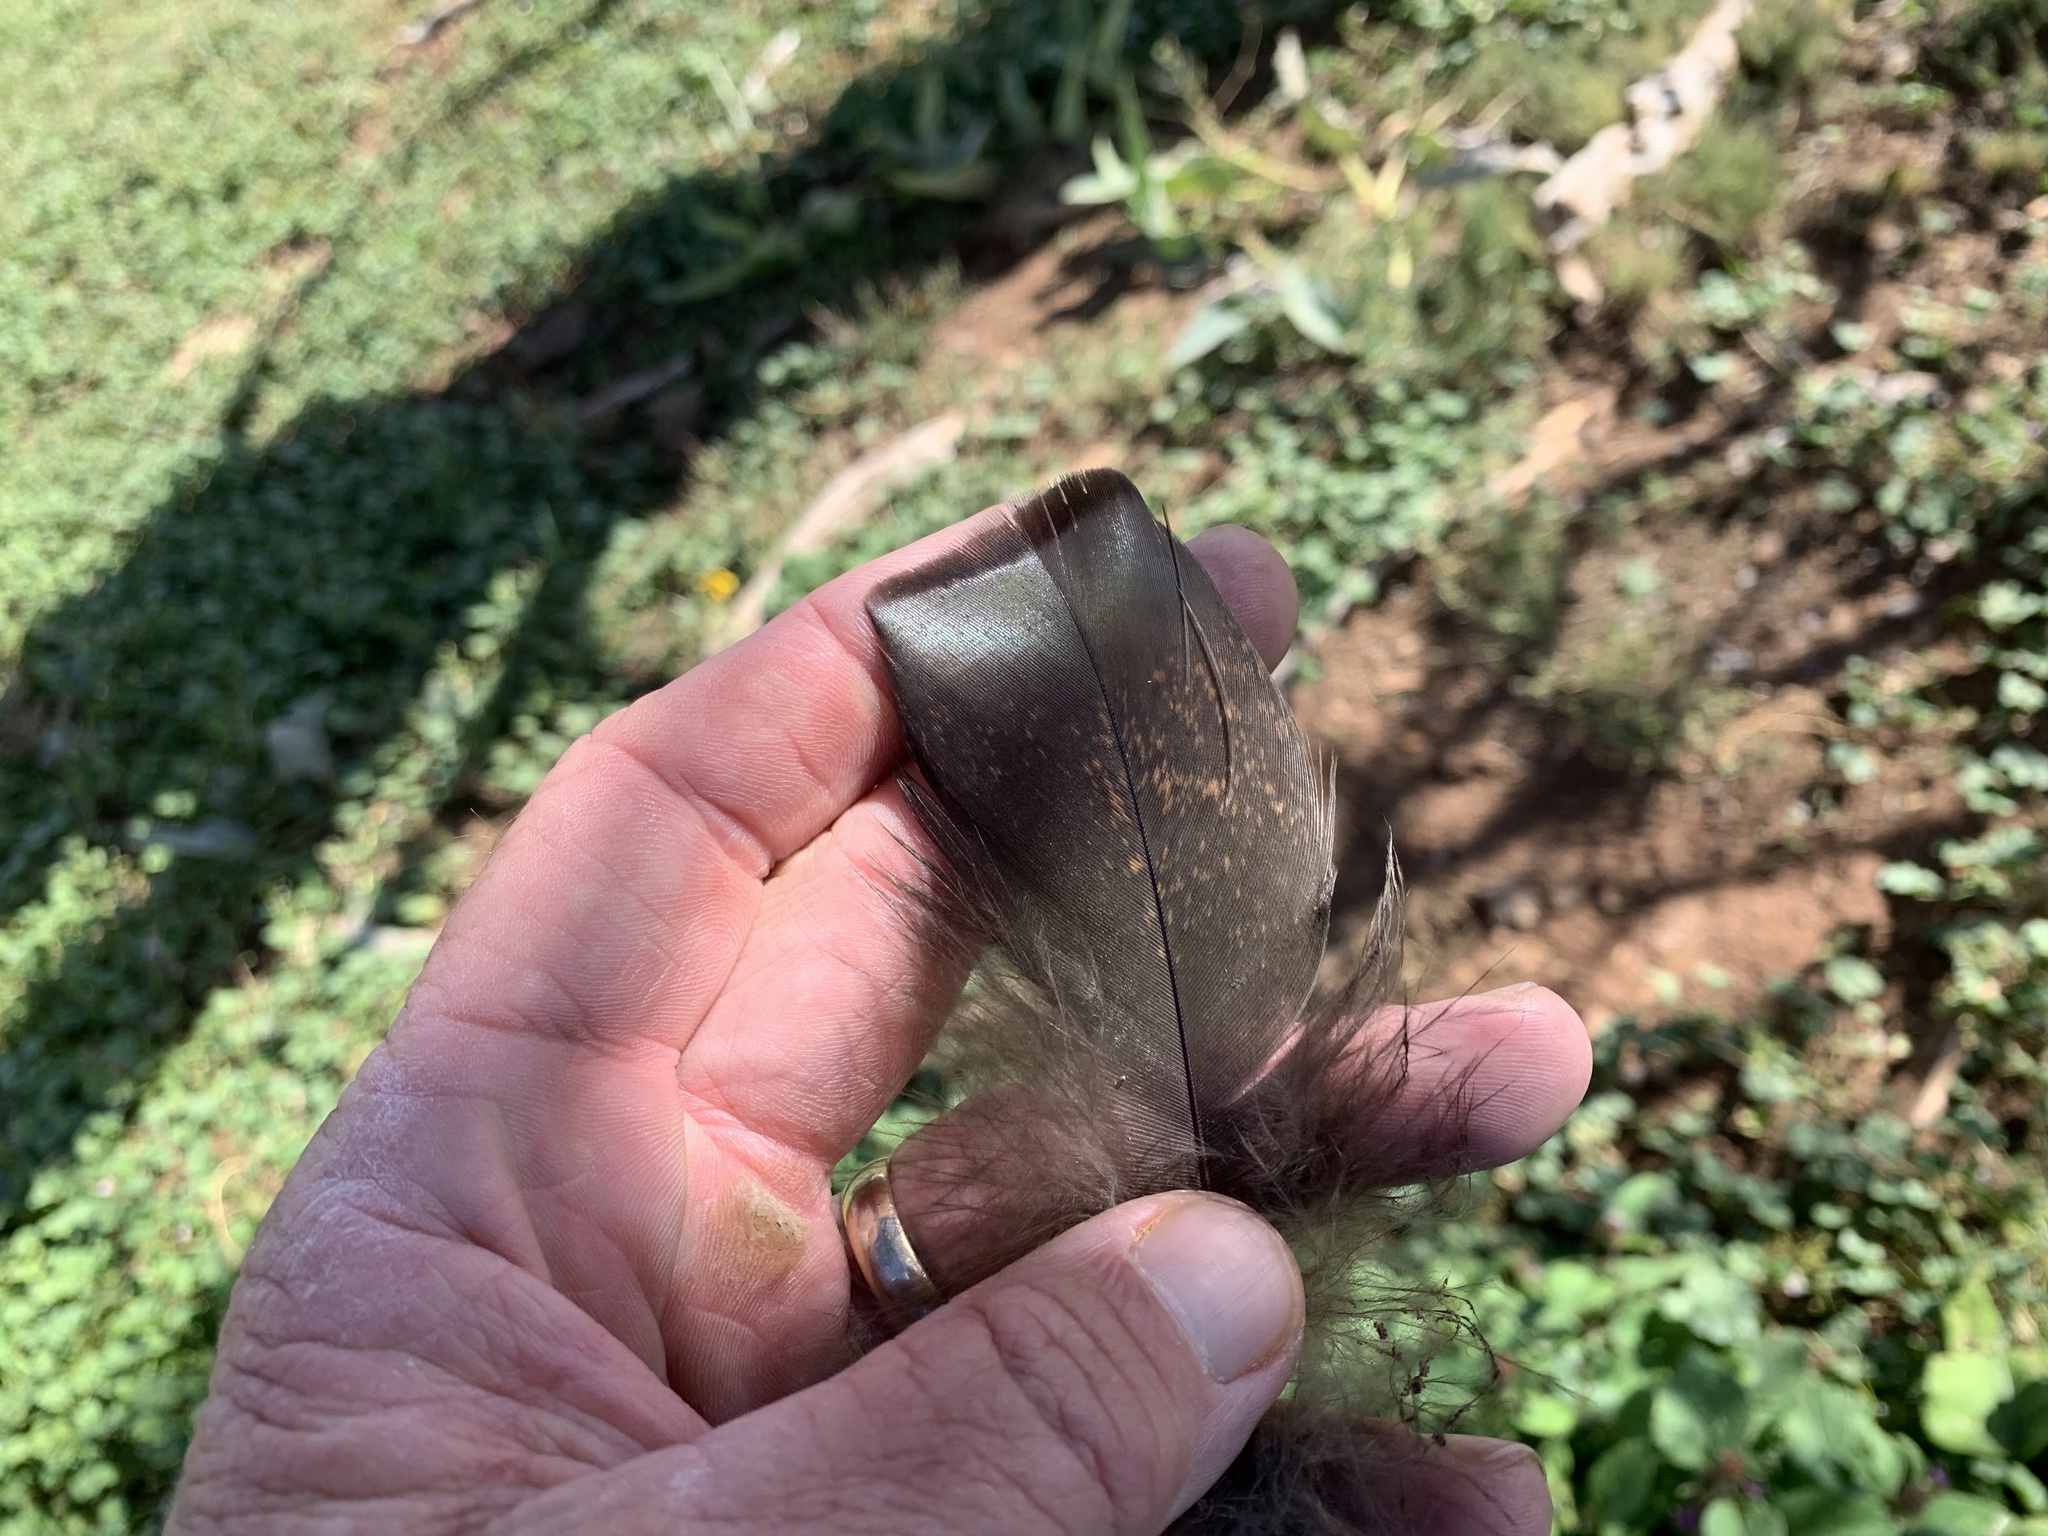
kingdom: Animalia
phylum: Chordata
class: Aves
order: Galliformes
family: Phasianidae
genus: Meleagris
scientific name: Meleagris gallopavo
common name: Wild turkey
